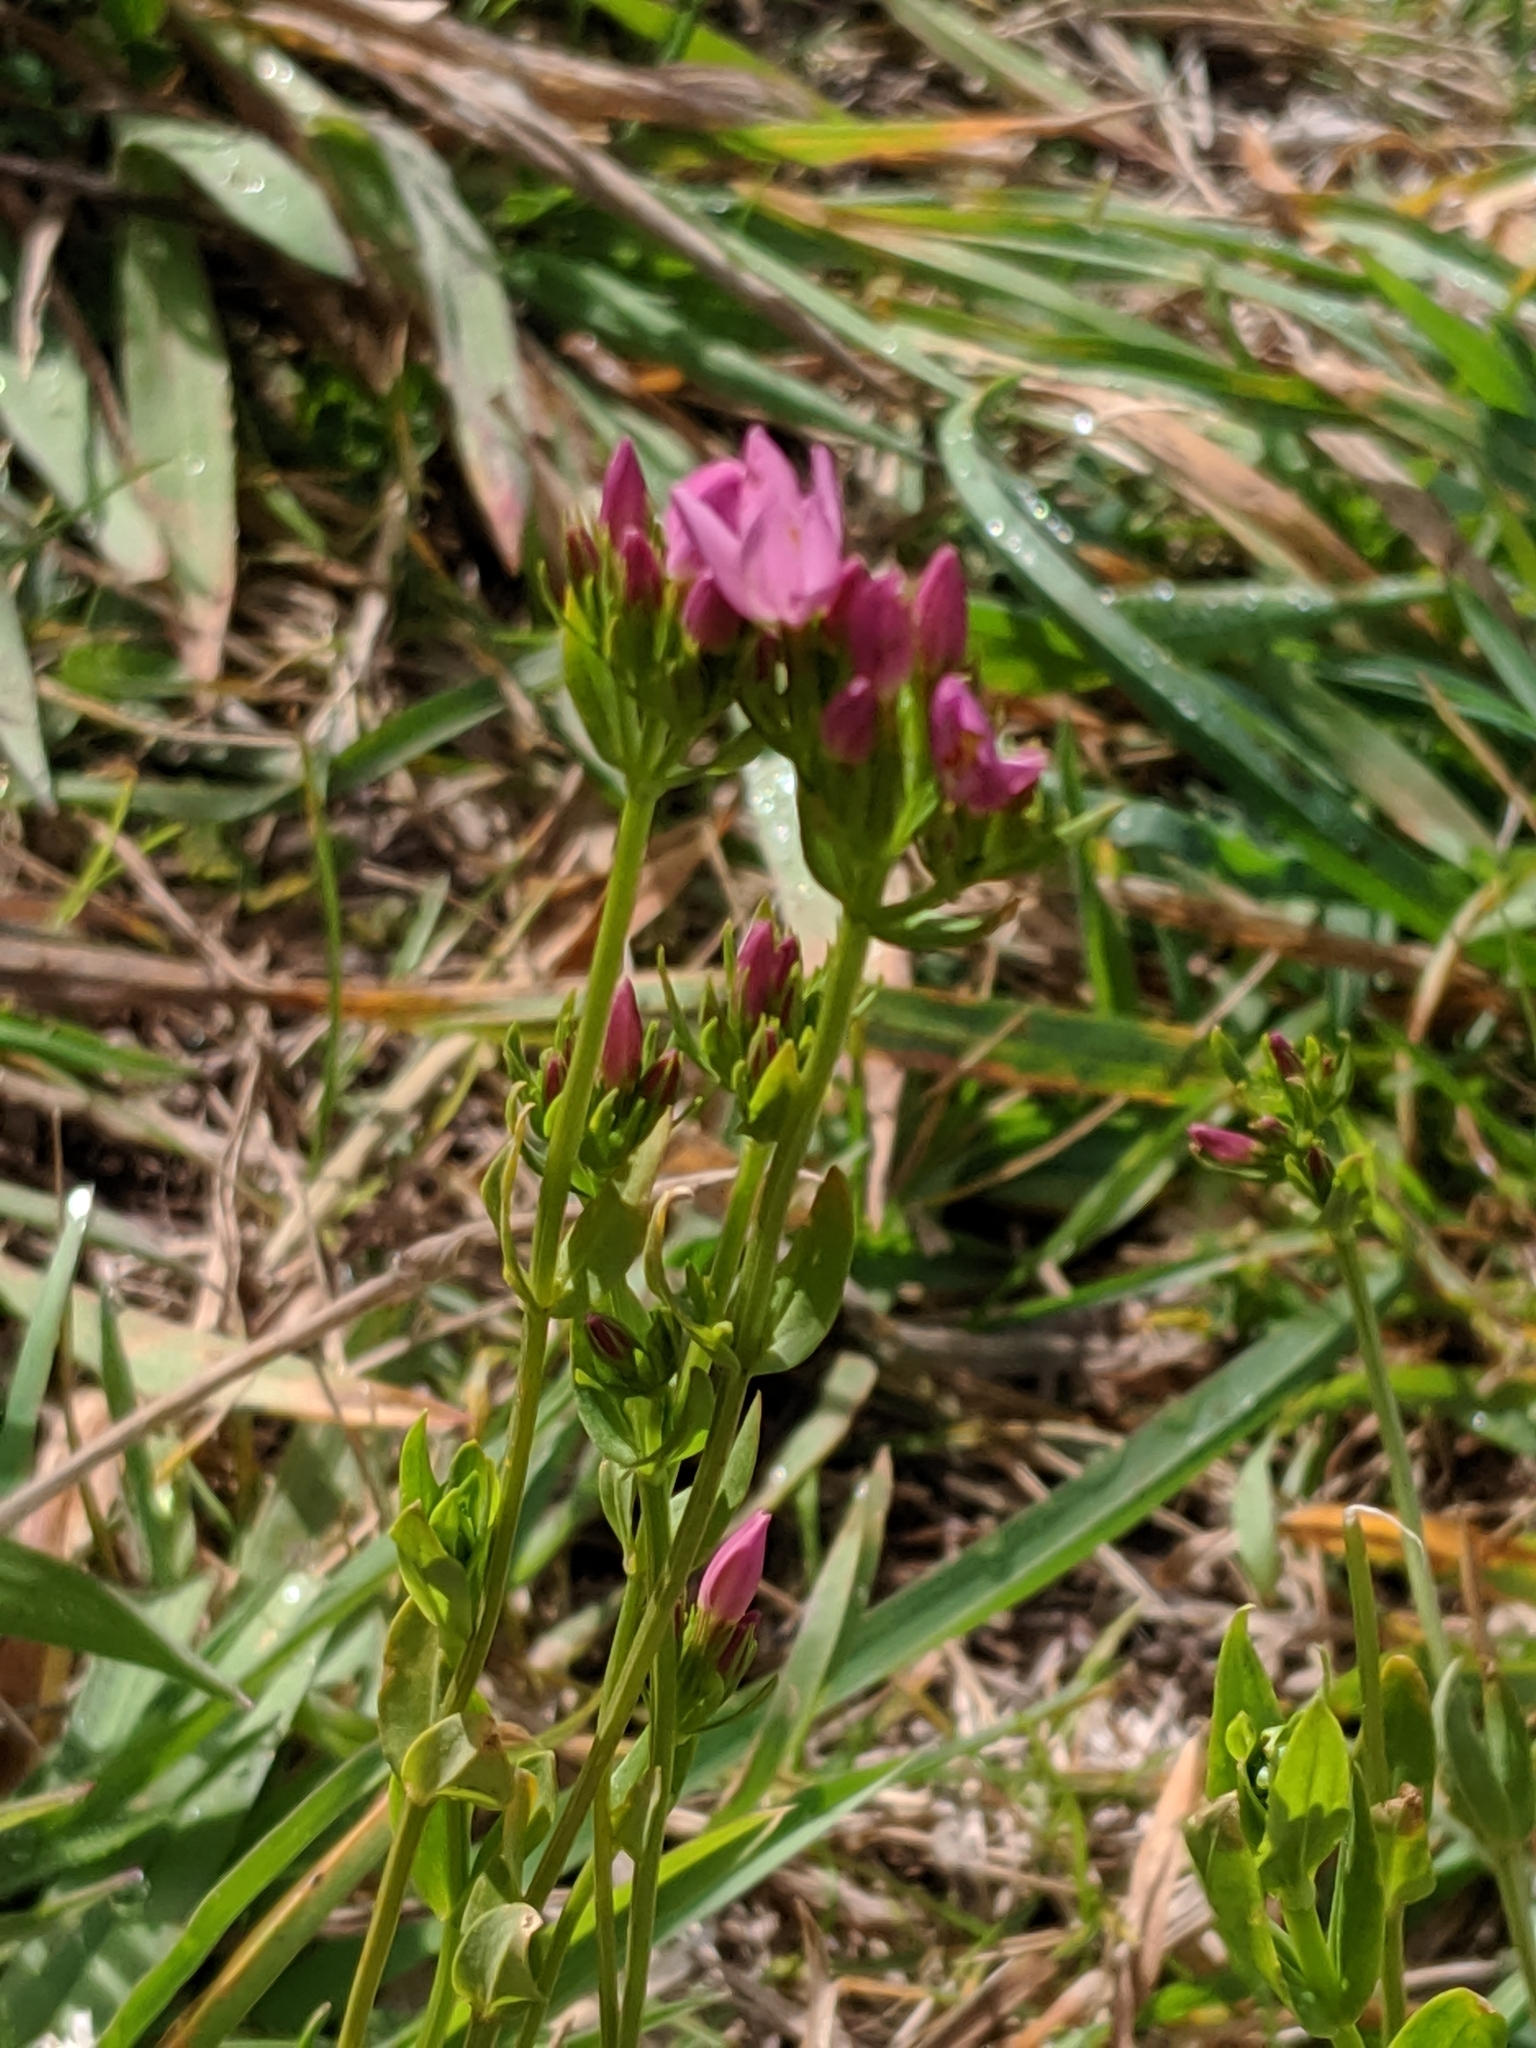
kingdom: Plantae
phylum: Tracheophyta
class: Magnoliopsida
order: Gentianales
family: Gentianaceae
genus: Centaurium
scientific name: Centaurium erythraea
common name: Common centaury
